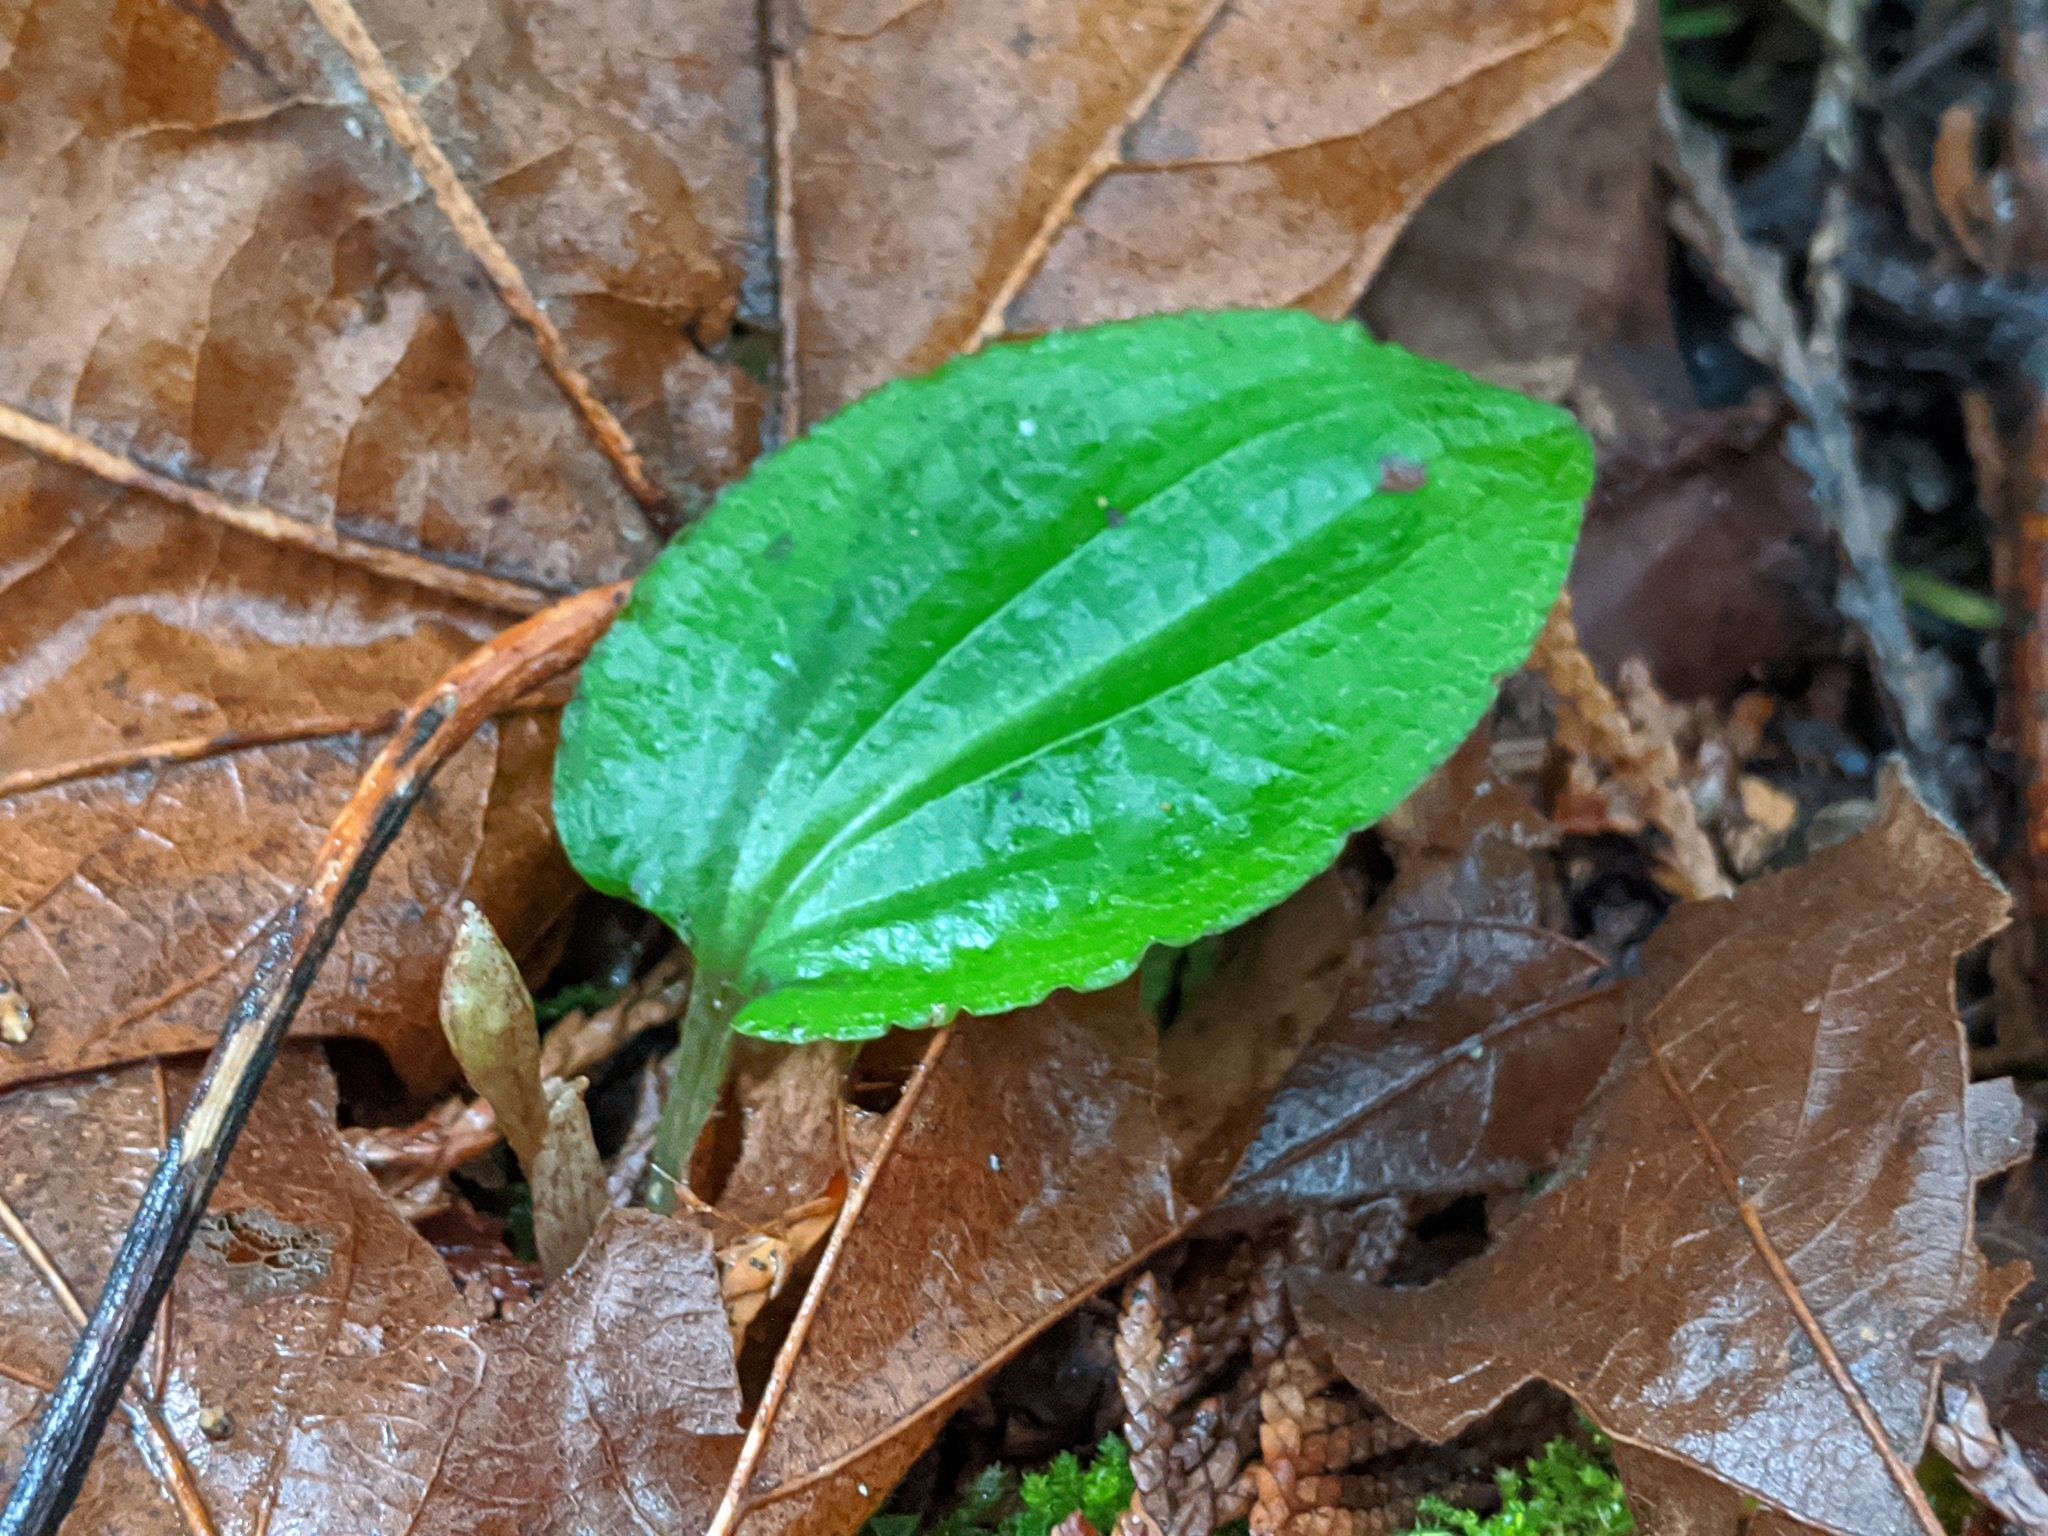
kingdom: Plantae
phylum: Tracheophyta
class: Liliopsida
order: Asparagales
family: Orchidaceae
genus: Calypso
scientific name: Calypso bulbosa
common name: Calypso
